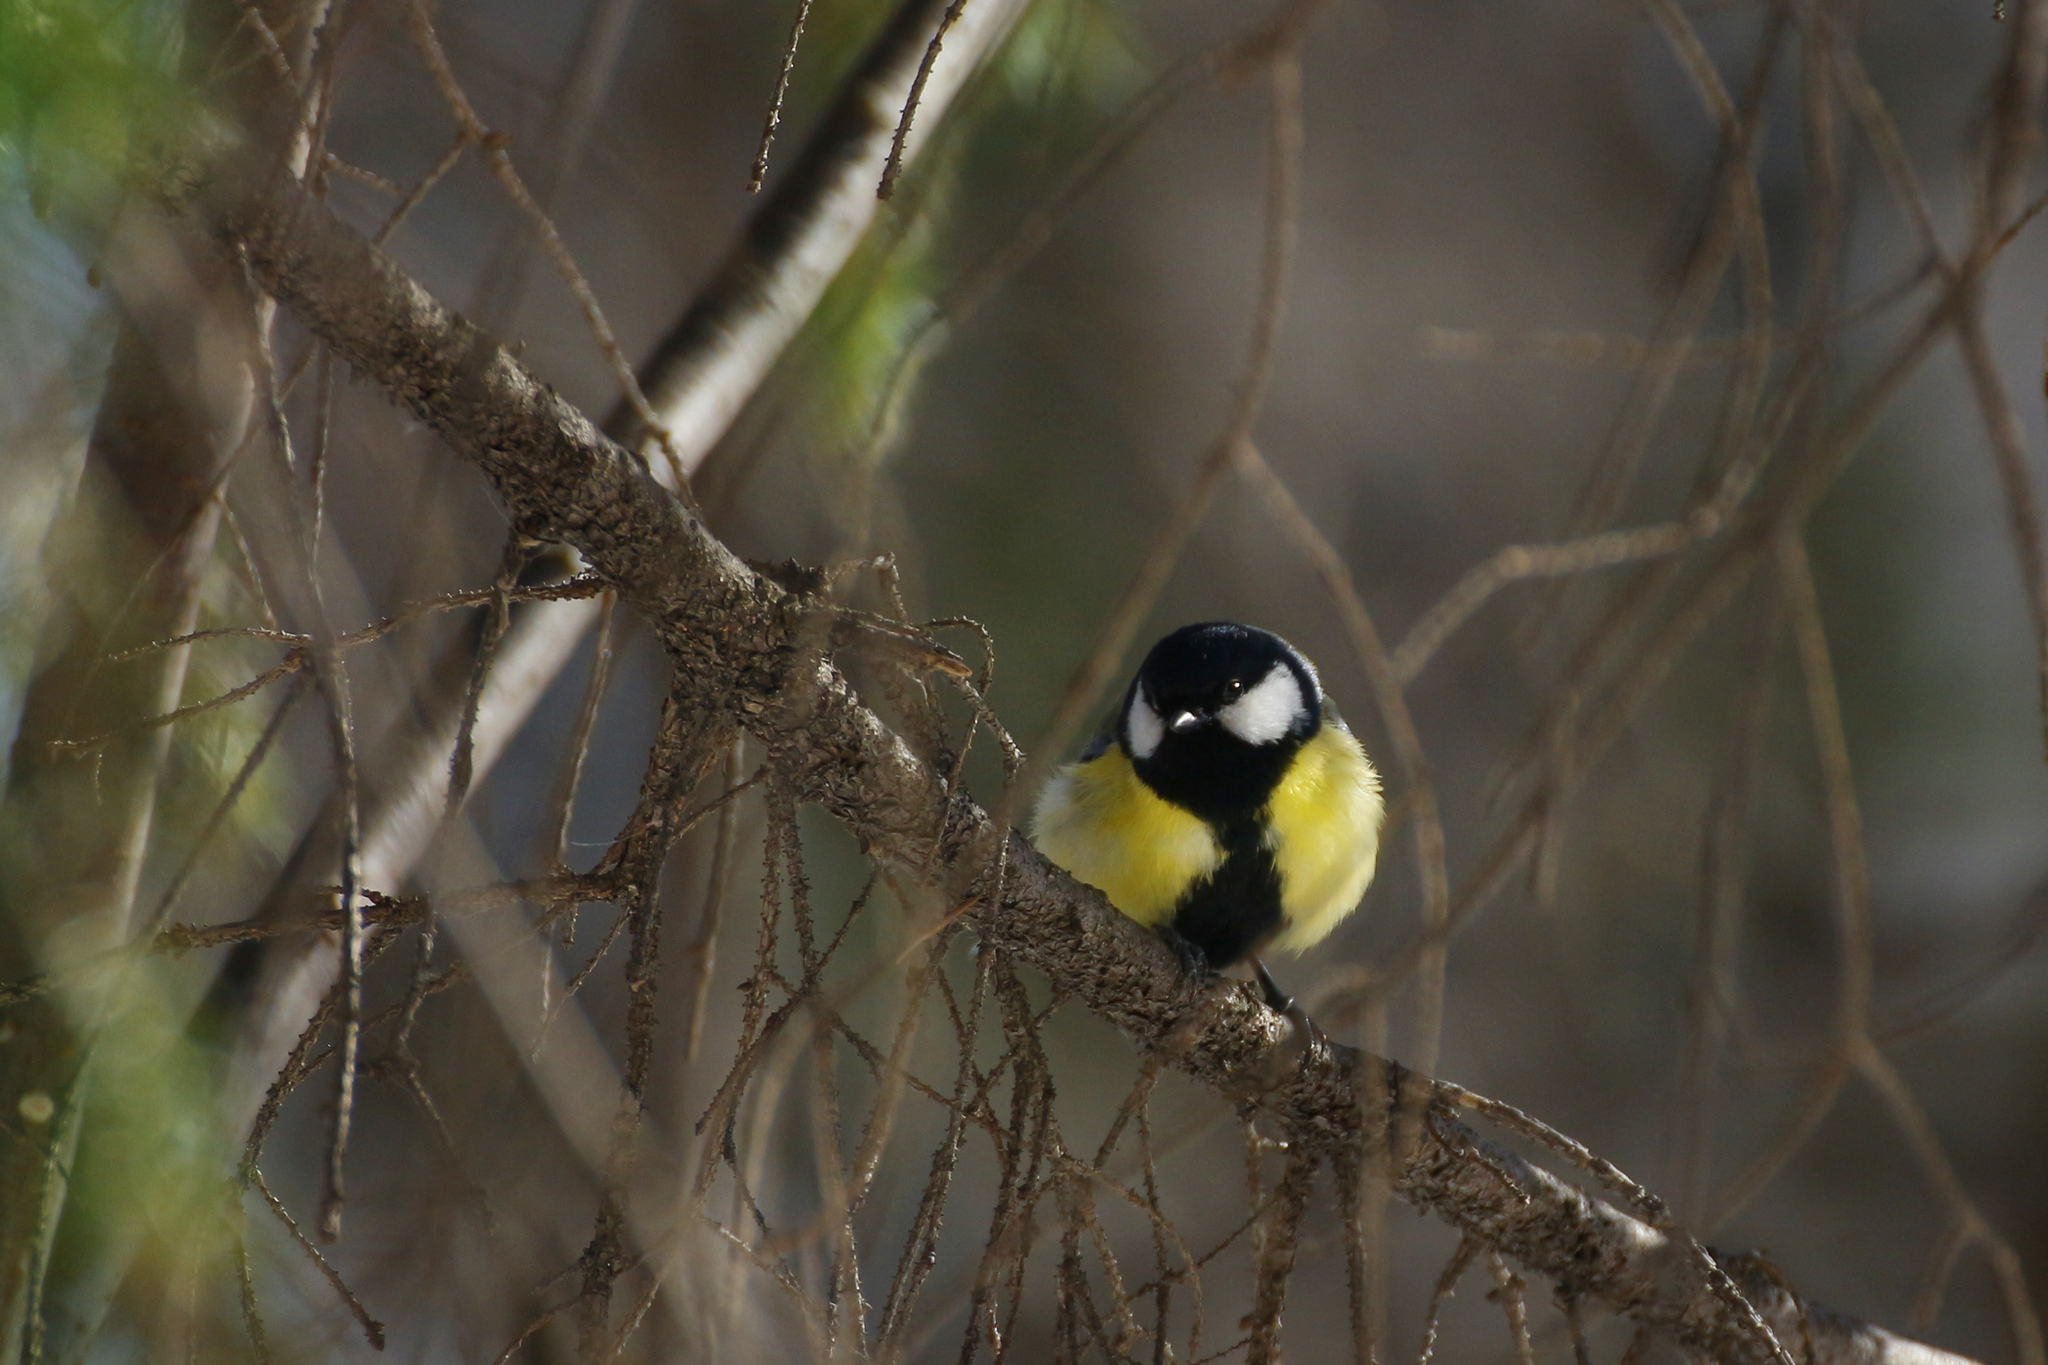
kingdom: Animalia
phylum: Chordata
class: Aves
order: Passeriformes
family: Paridae
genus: Parus
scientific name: Parus major
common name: Great tit
